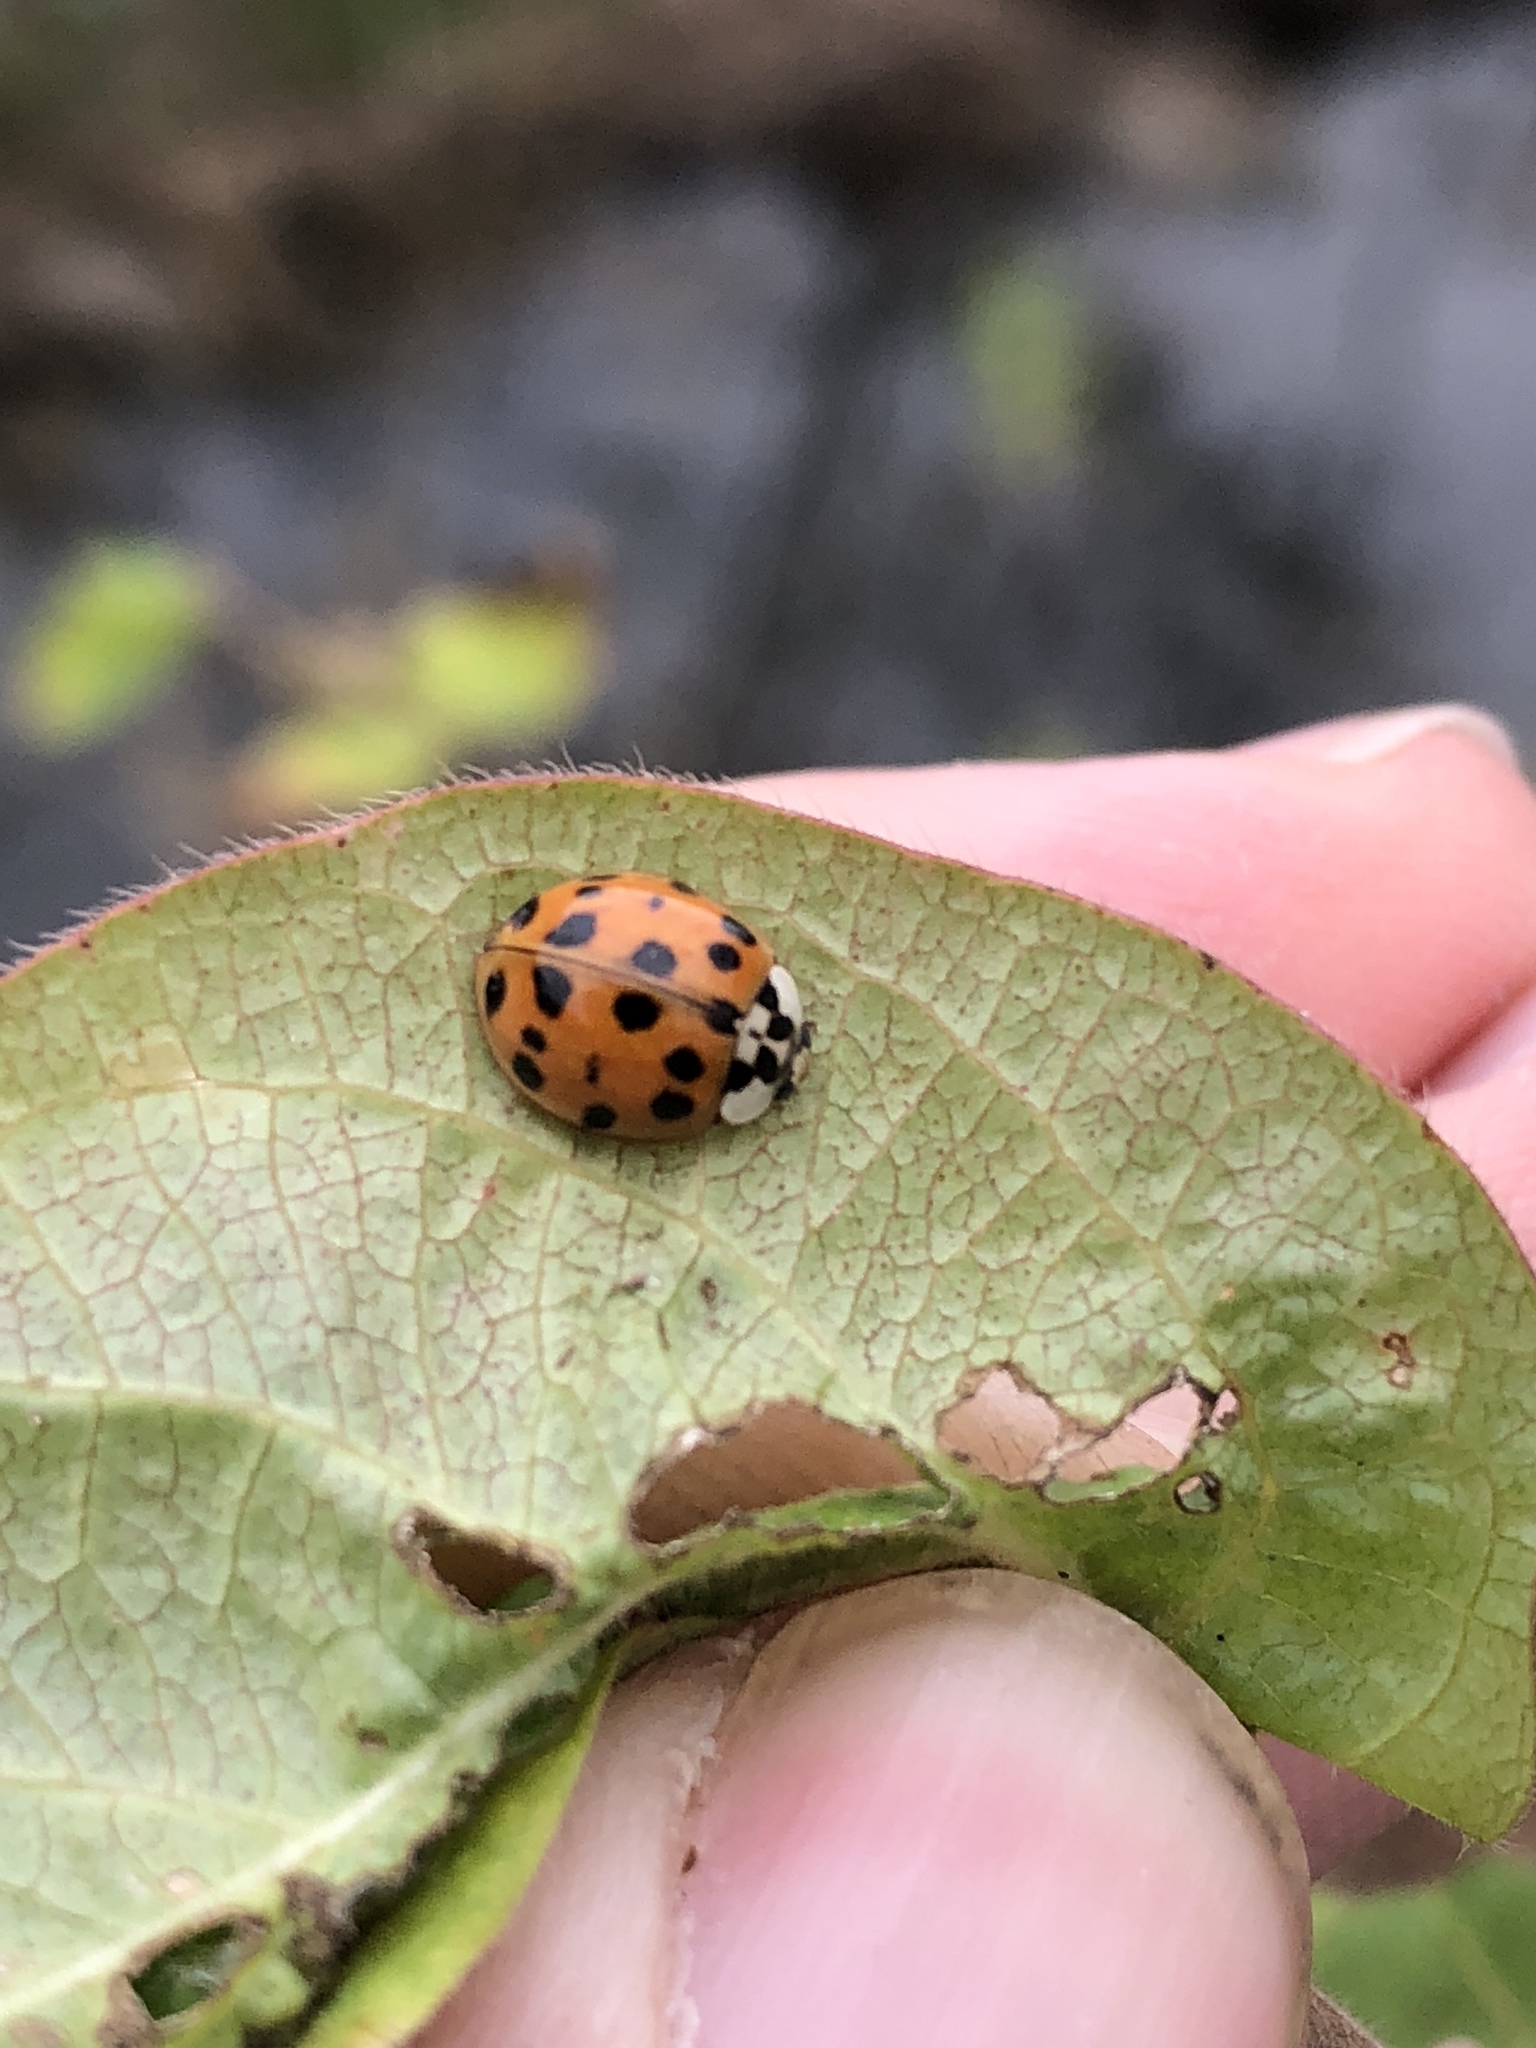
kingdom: Animalia
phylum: Arthropoda
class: Insecta
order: Coleoptera
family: Coccinellidae
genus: Harmonia
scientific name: Harmonia axyridis
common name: Harlequin ladybird
